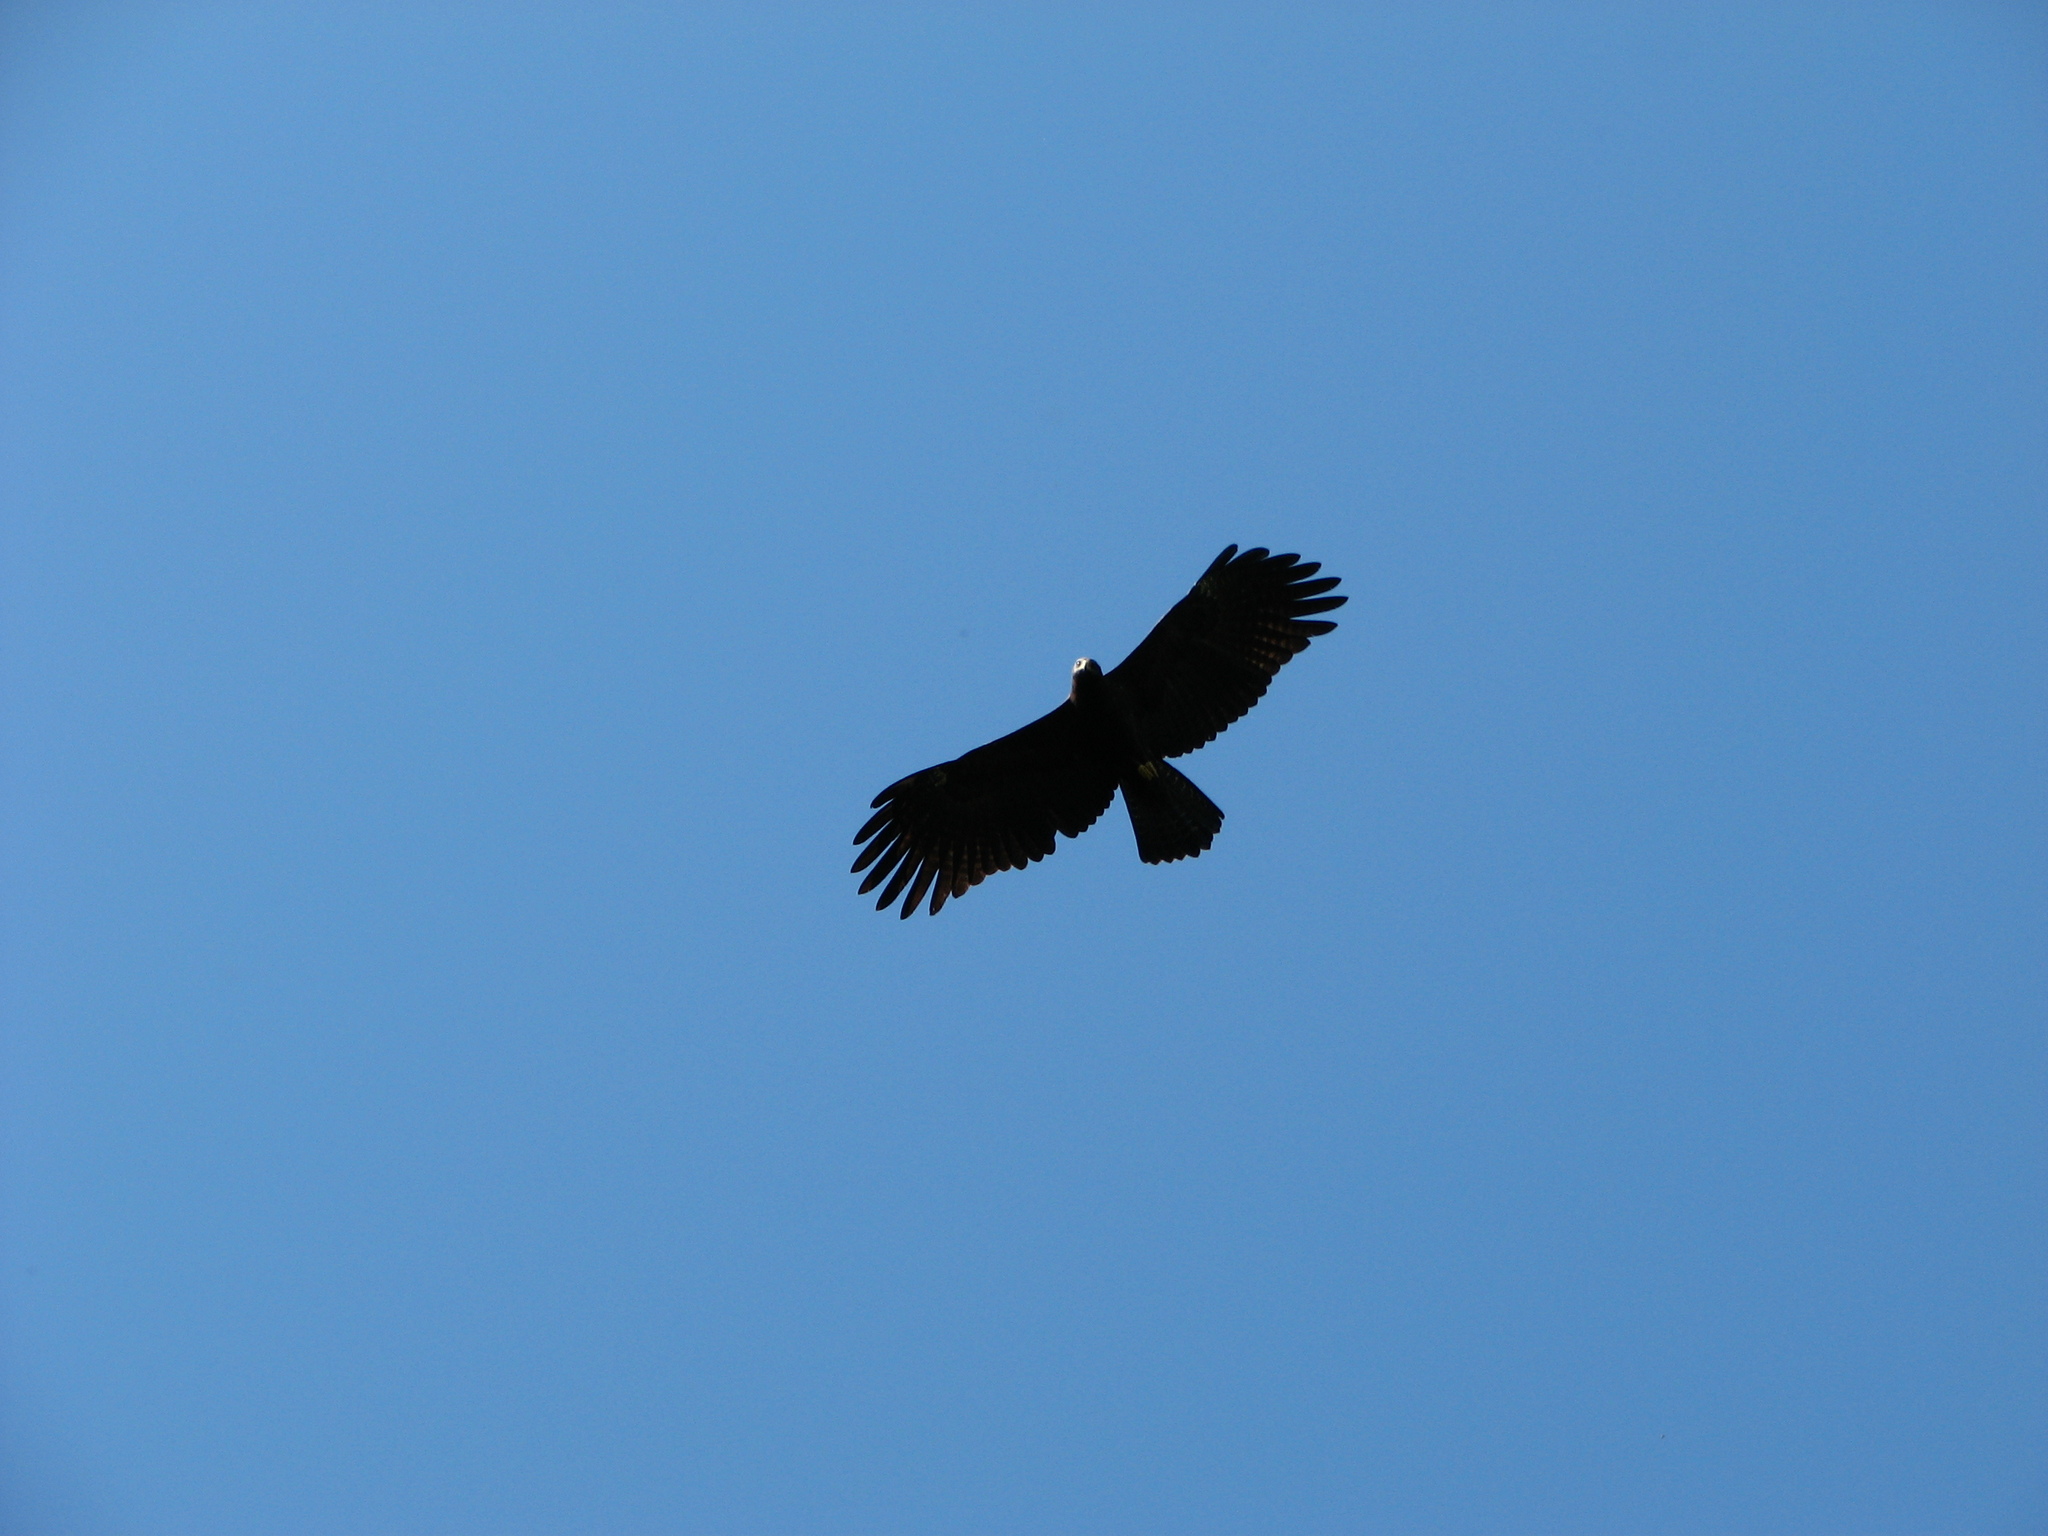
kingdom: Animalia
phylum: Chordata
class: Aves
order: Accipitriformes
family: Accipitridae
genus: Ictinaetus
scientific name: Ictinaetus malayensis
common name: Black eagle
